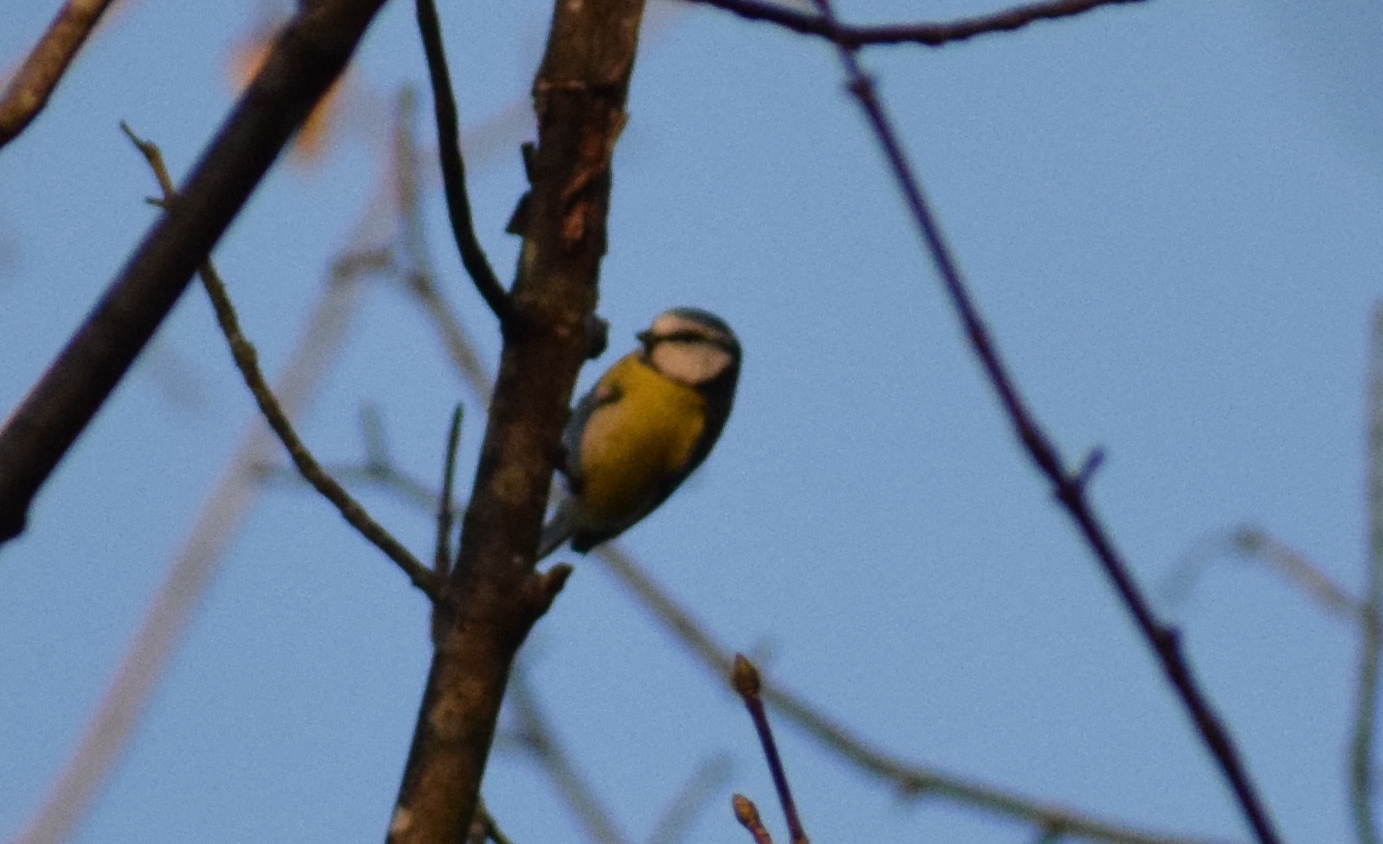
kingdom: Animalia
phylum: Chordata
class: Aves
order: Passeriformes
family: Paridae
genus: Cyanistes
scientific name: Cyanistes caeruleus
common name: Eurasian blue tit
